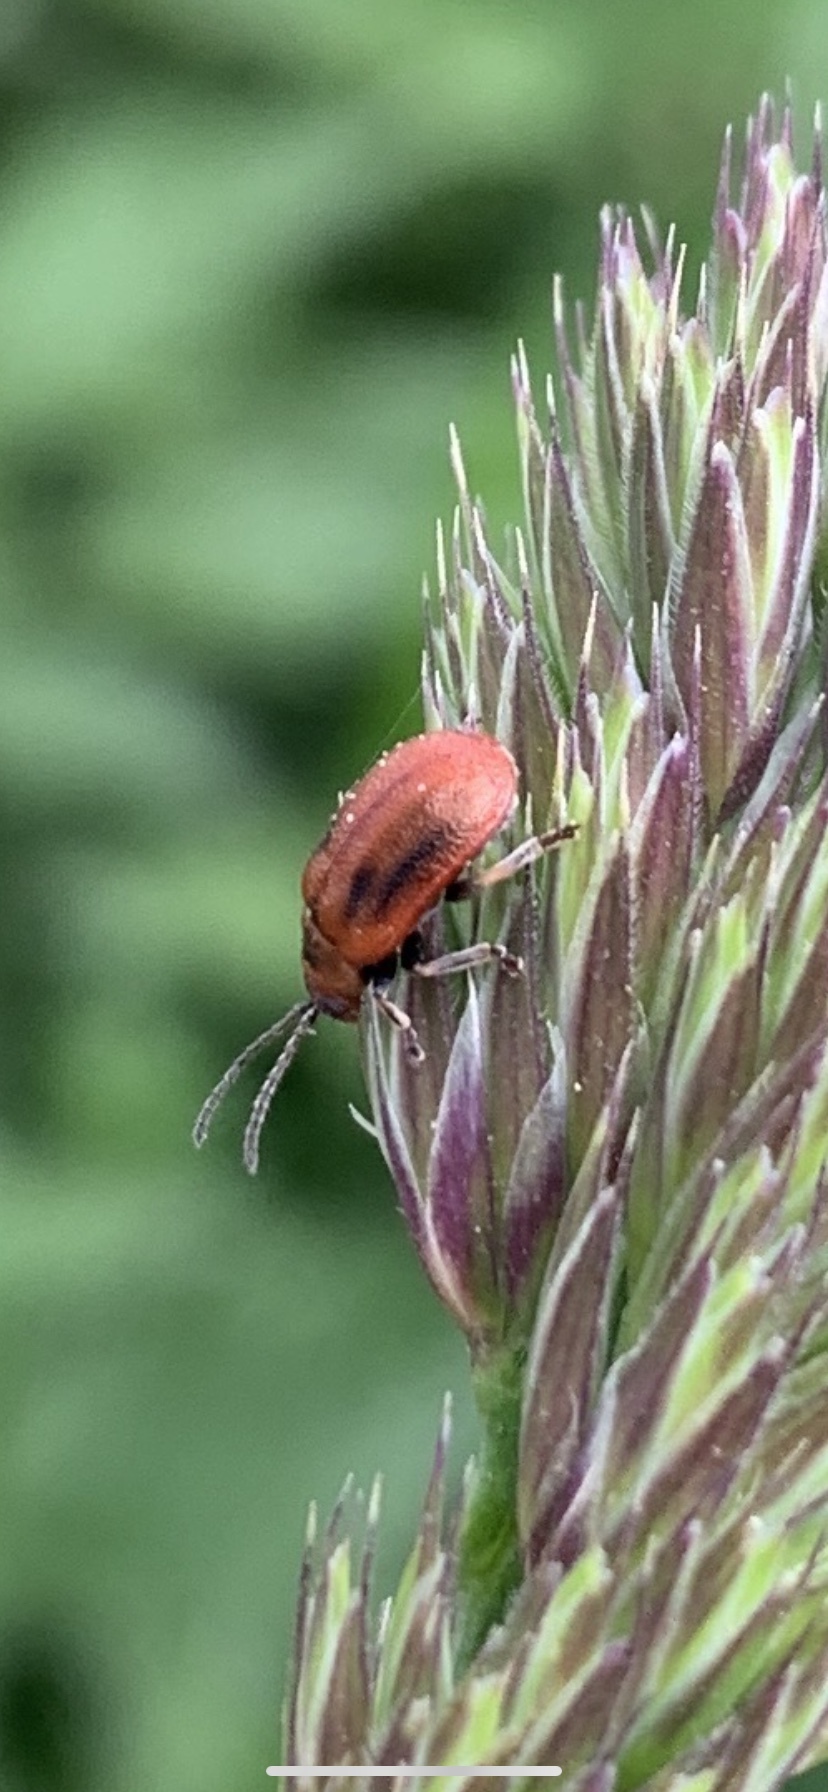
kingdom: Animalia
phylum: Arthropoda
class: Insecta
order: Coleoptera
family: Chrysomelidae
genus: Lochmaea
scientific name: Lochmaea crataegi
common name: Hawthorn leaf beetle
